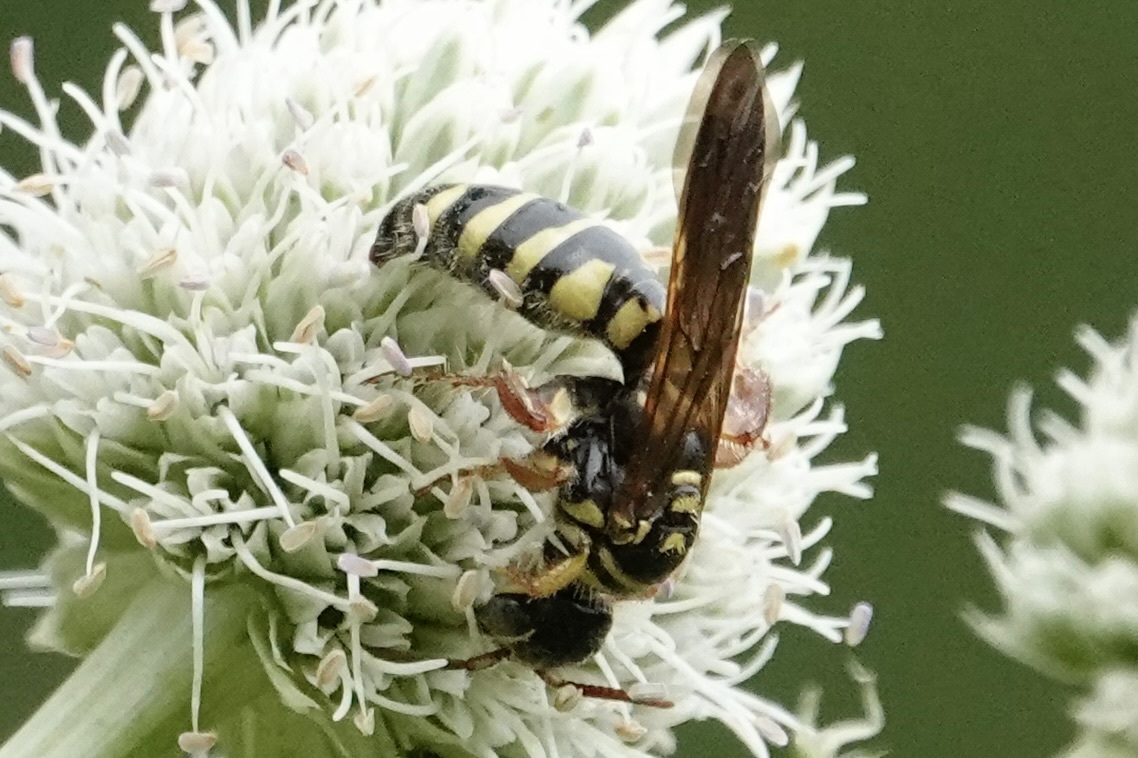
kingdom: Animalia
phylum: Arthropoda
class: Insecta
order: Hymenoptera
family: Tiphiidae
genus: Myzinum
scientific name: Myzinum quinquecinctum
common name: Five-banded thynnid wasp
